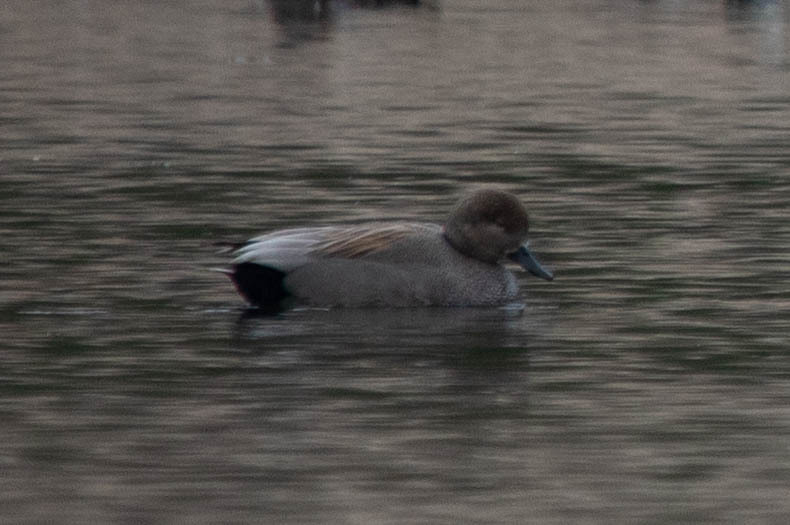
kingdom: Animalia
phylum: Chordata
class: Aves
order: Anseriformes
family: Anatidae
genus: Mareca
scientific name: Mareca strepera
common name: Gadwall
